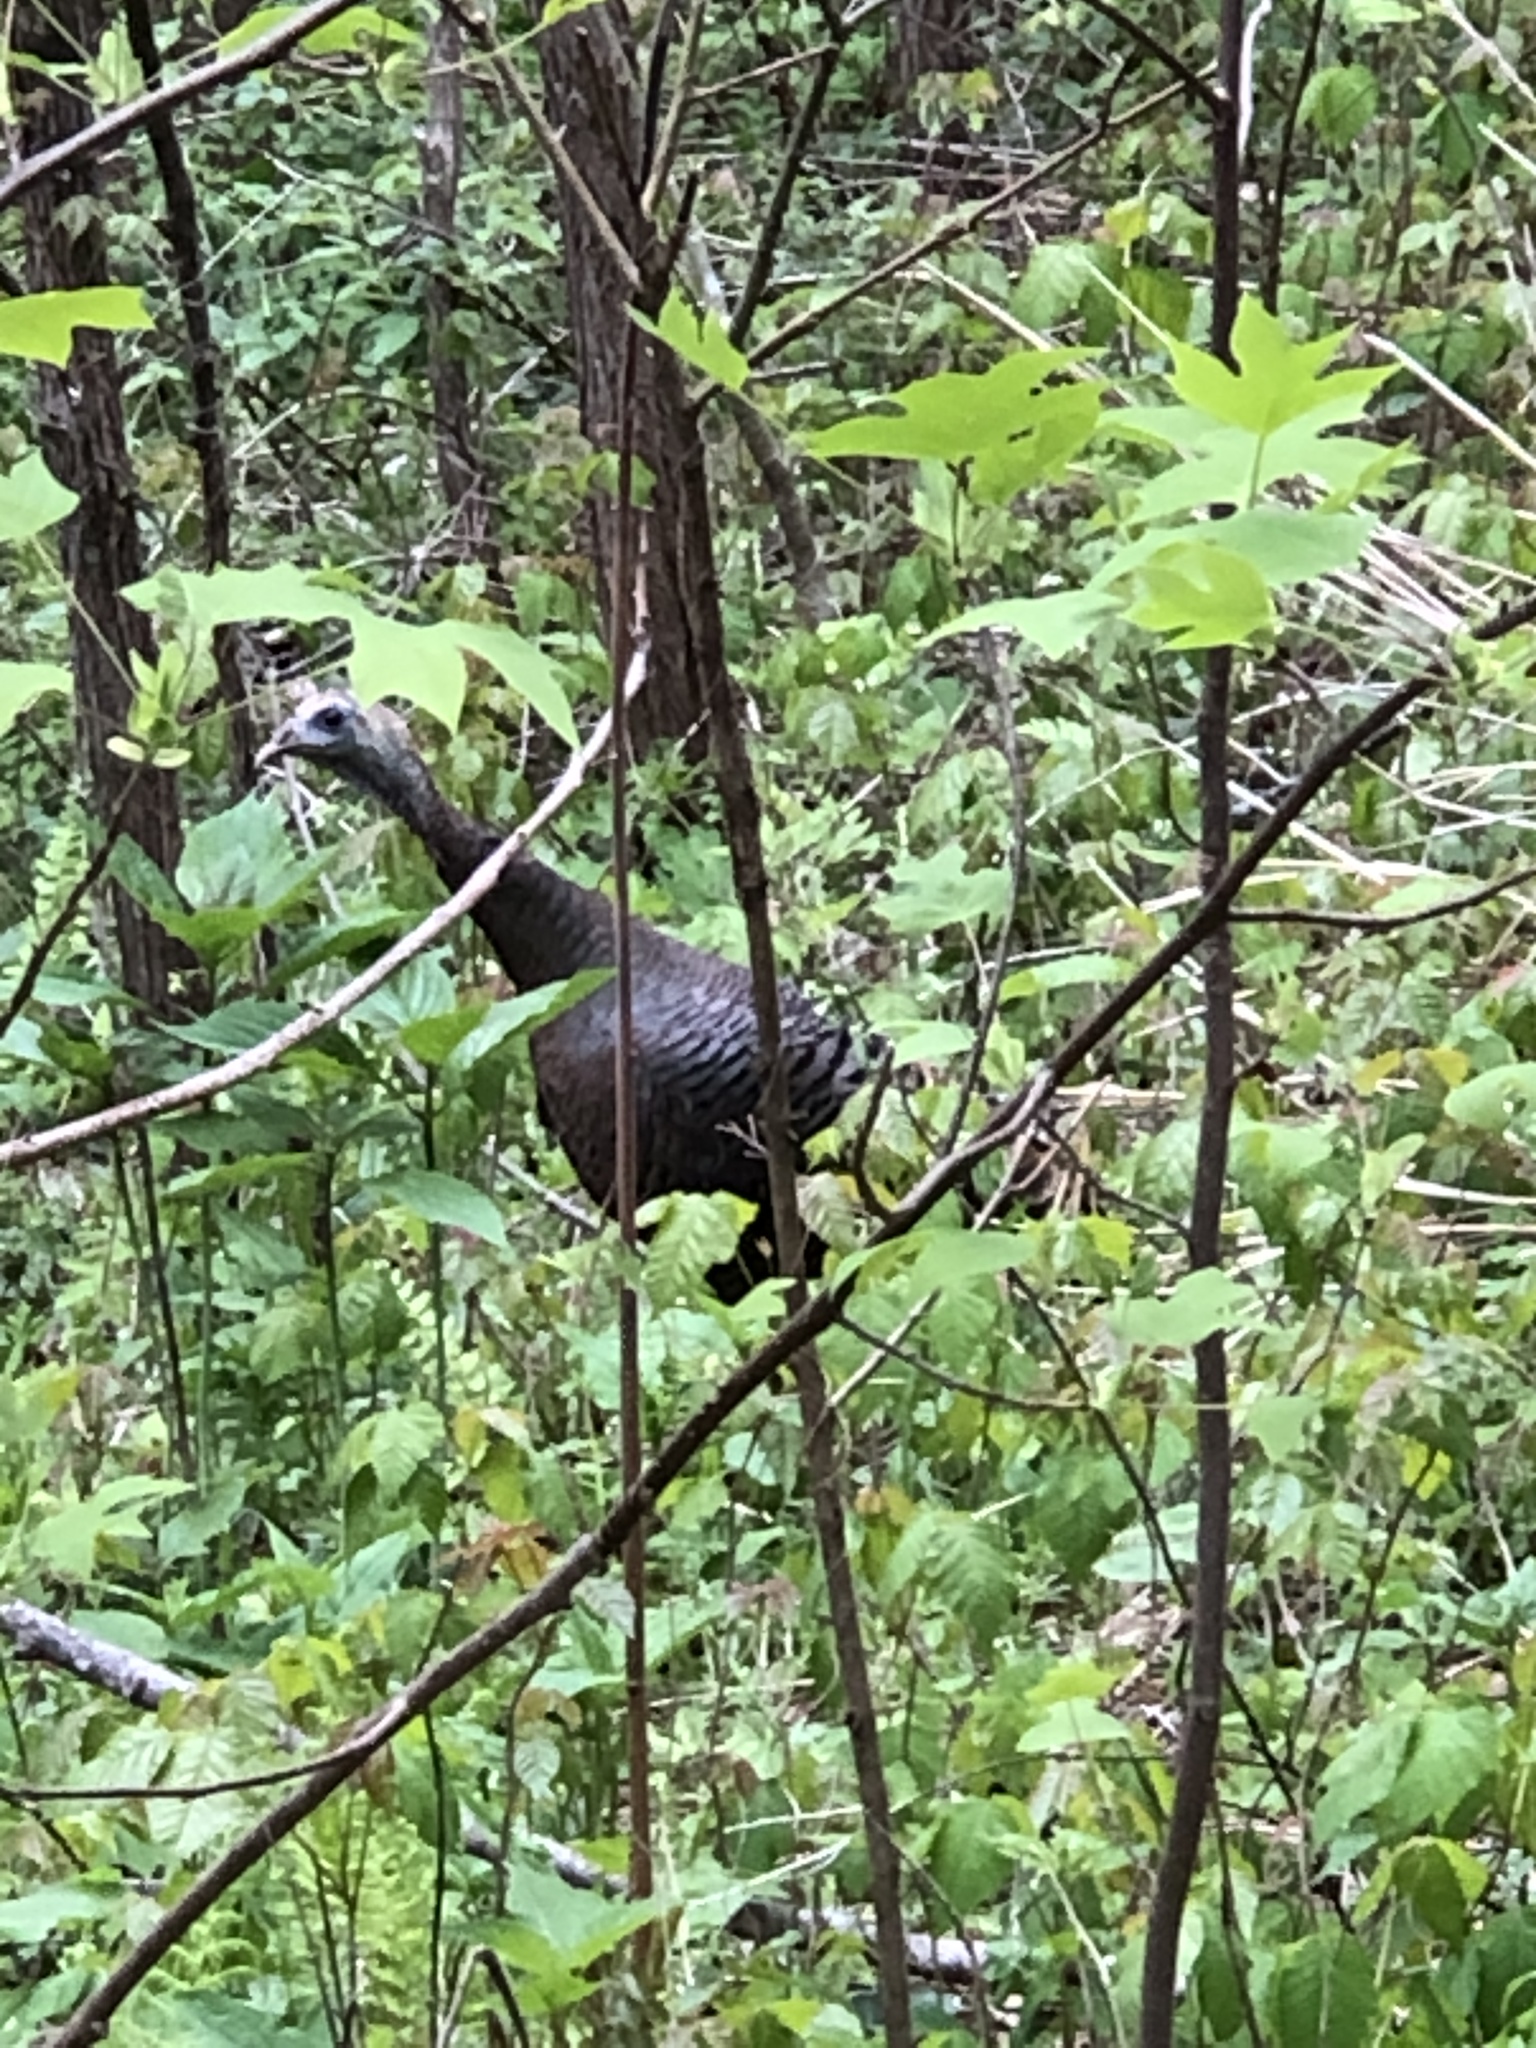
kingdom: Animalia
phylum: Chordata
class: Aves
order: Galliformes
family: Phasianidae
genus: Meleagris
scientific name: Meleagris gallopavo
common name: Wild turkey
